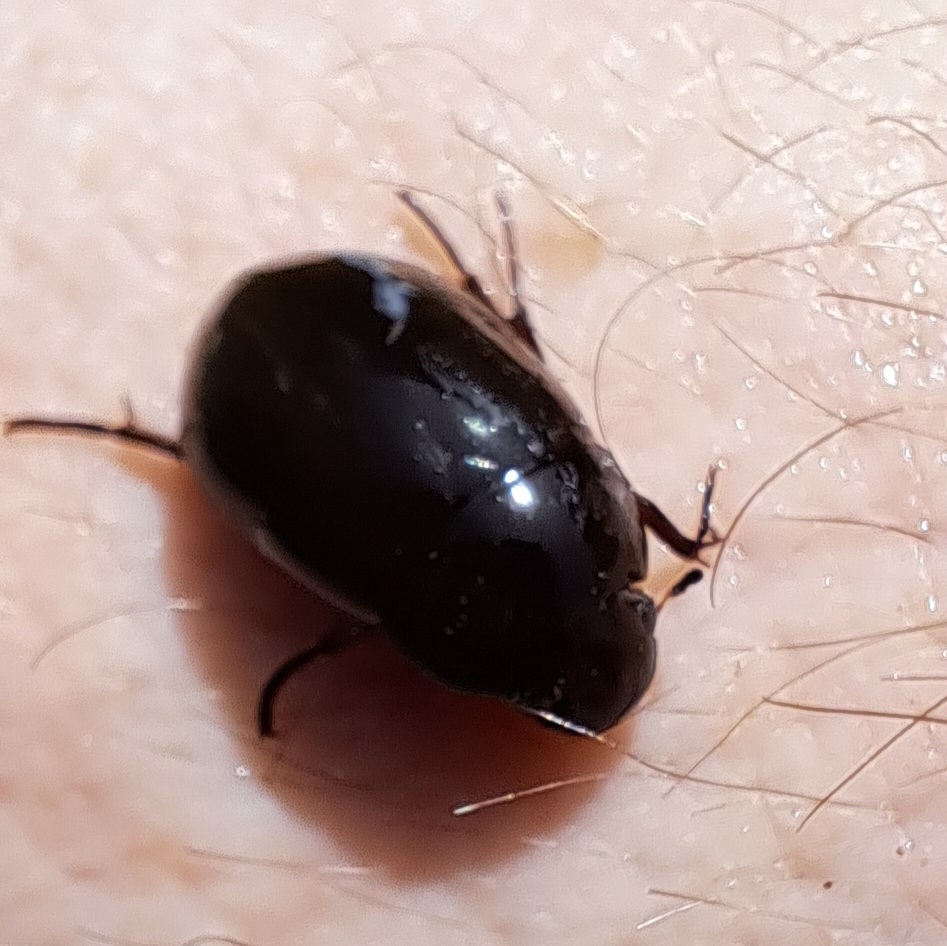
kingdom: Animalia
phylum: Arthropoda
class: Insecta
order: Coleoptera
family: Hydrophilidae
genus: Hydrochara
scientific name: Hydrochara caraboides
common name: Lesser silver water beetle
